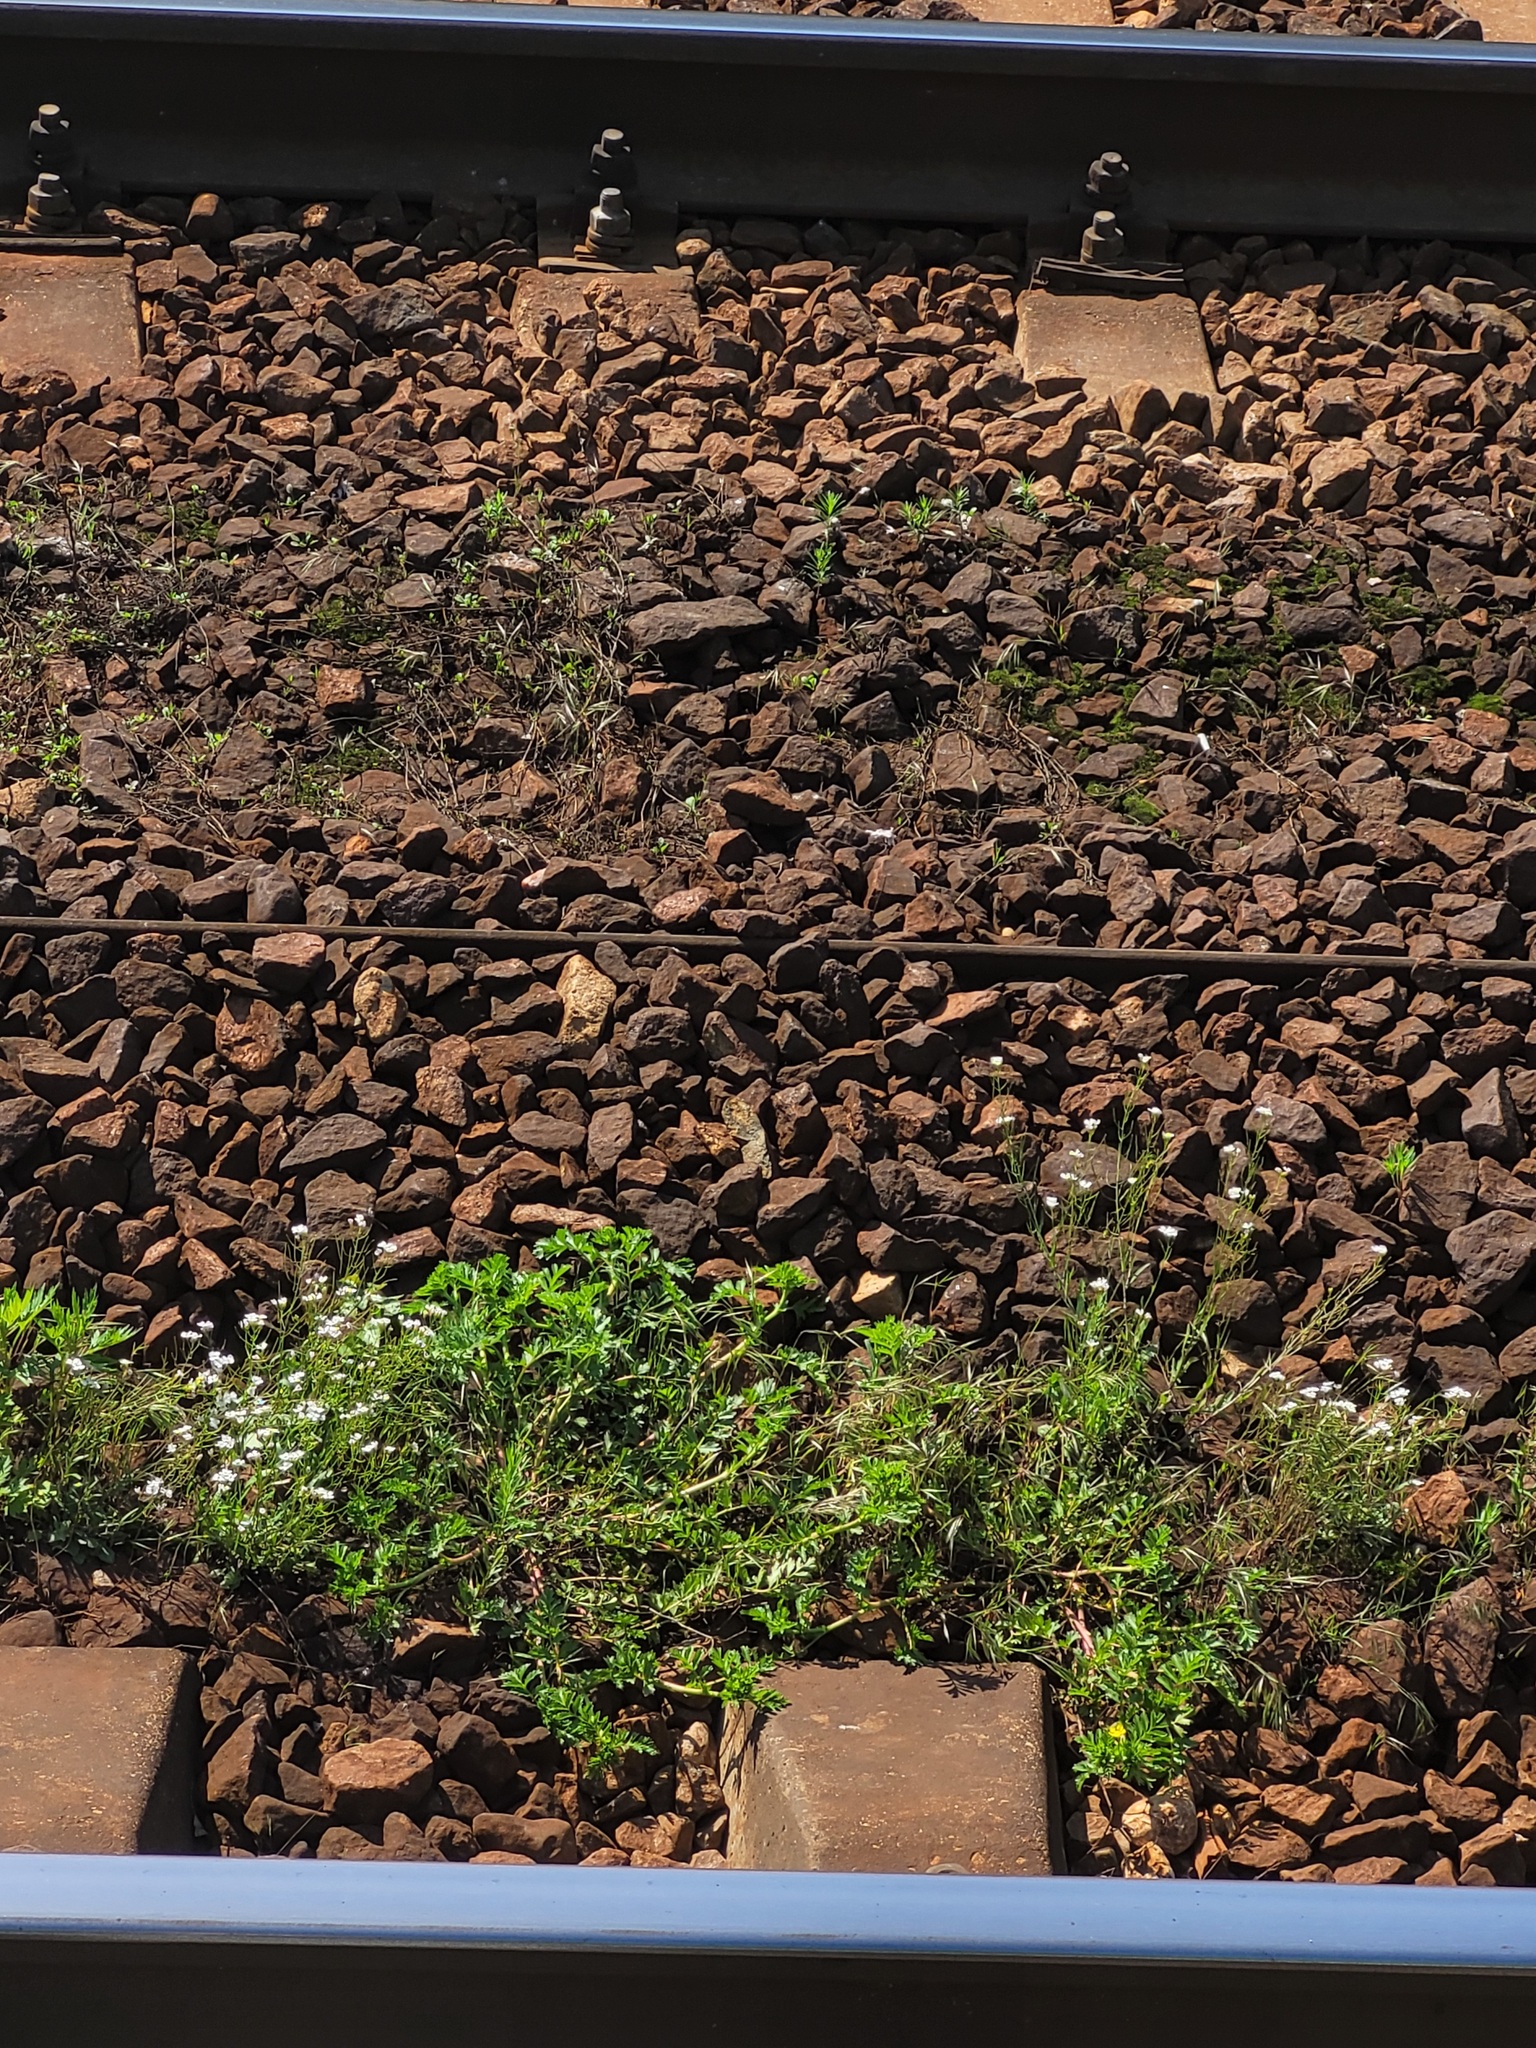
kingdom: Plantae
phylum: Tracheophyta
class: Magnoliopsida
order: Brassicales
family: Brassicaceae
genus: Arabidopsis
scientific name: Arabidopsis arenosa
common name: Sand rock-cress
